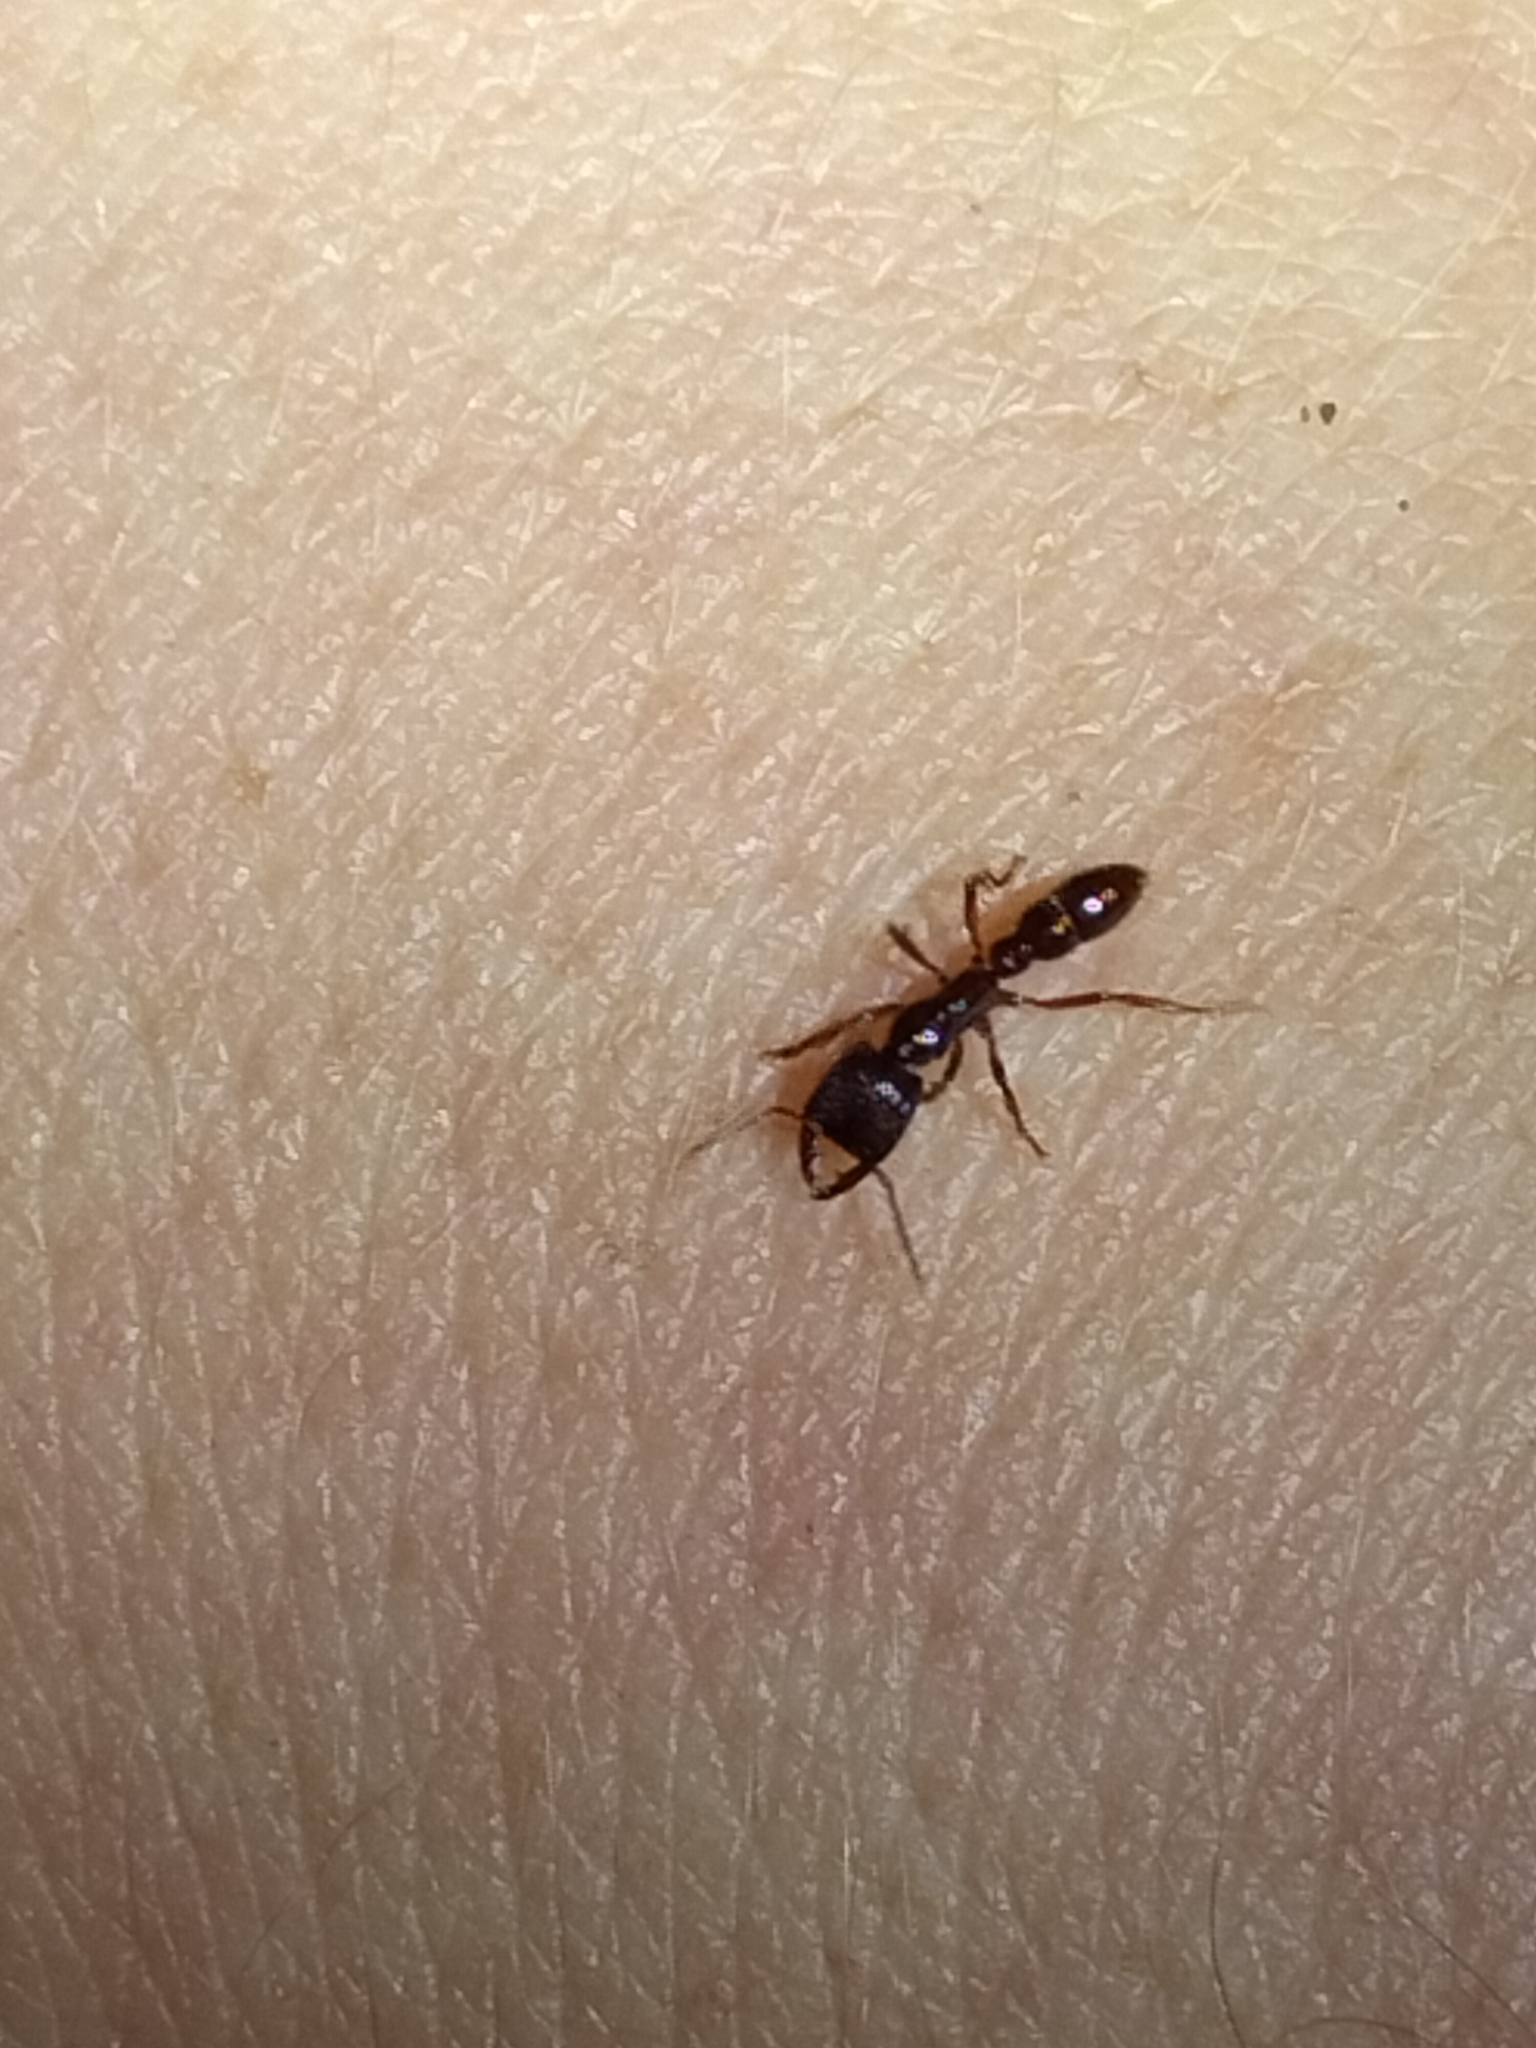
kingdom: Animalia
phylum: Arthropoda
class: Insecta
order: Hymenoptera
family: Formicidae
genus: Amblyopone
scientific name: Amblyopone australis
